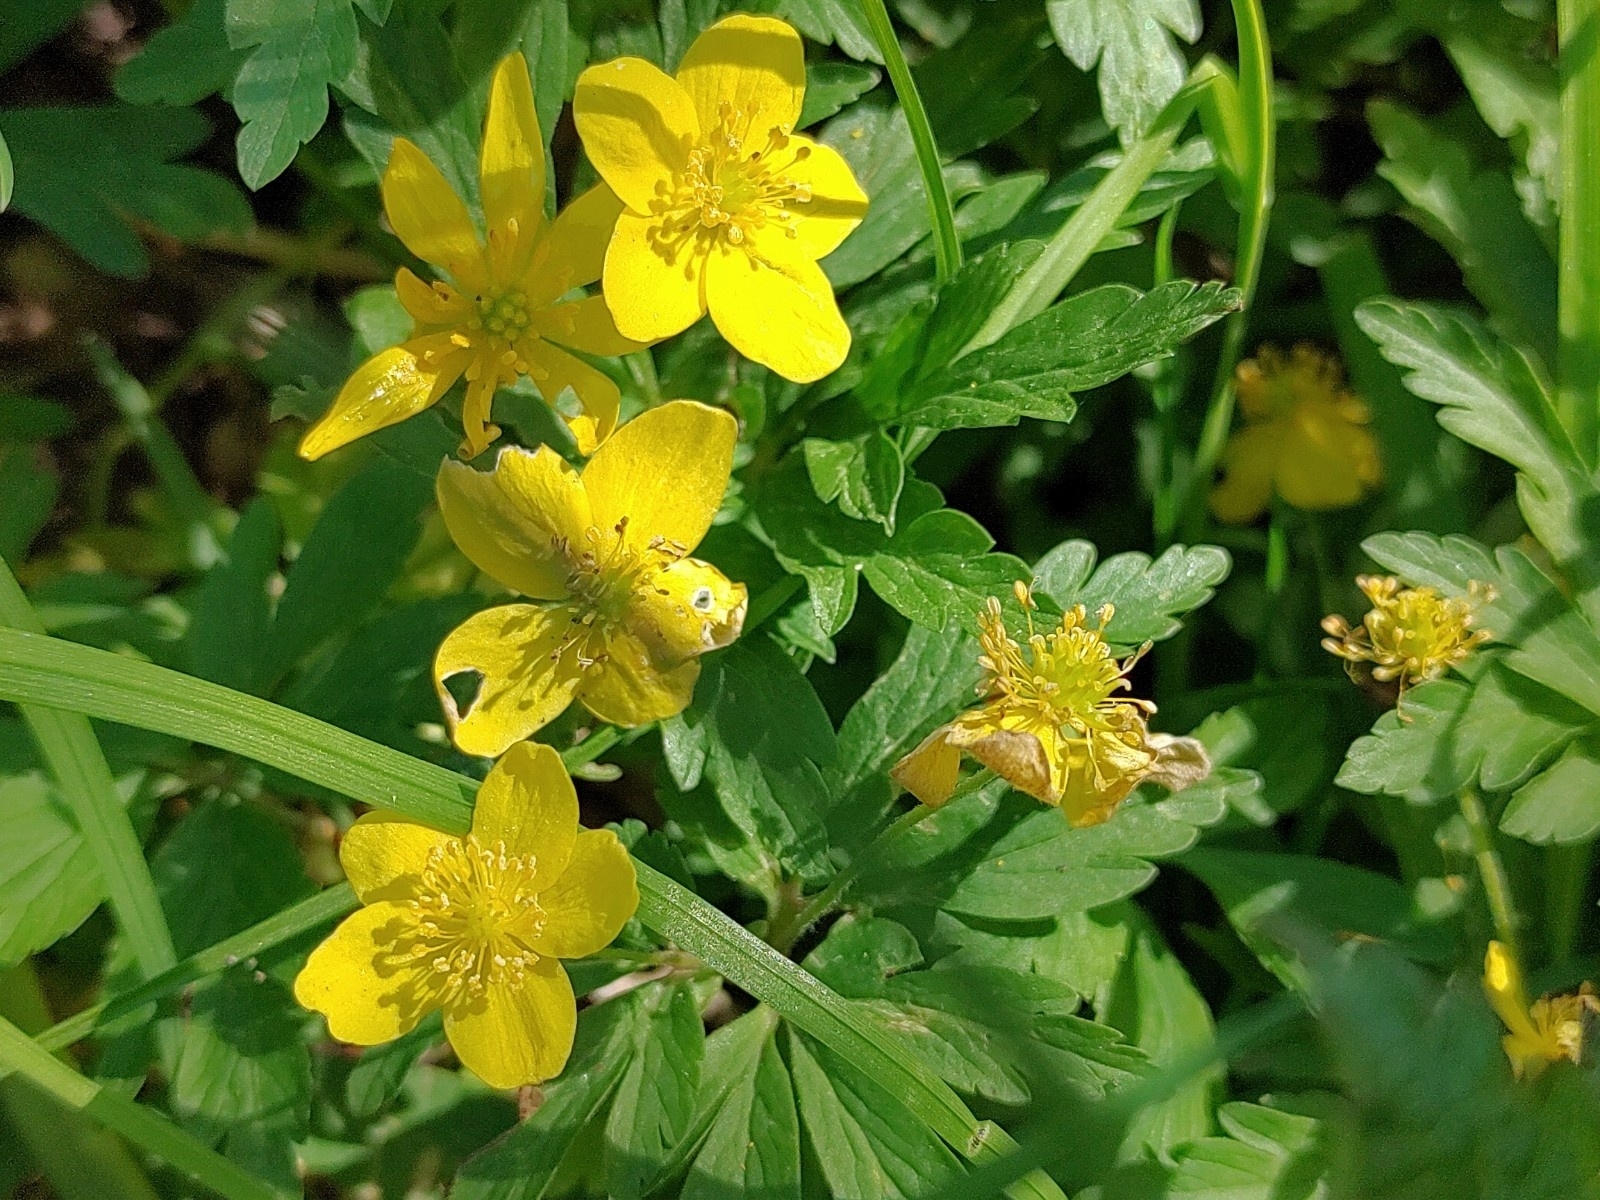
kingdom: Plantae
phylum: Tracheophyta
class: Magnoliopsida
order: Ranunculales
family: Ranunculaceae
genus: Anemone
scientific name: Anemone ranunculoides
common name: Yellow anemone
